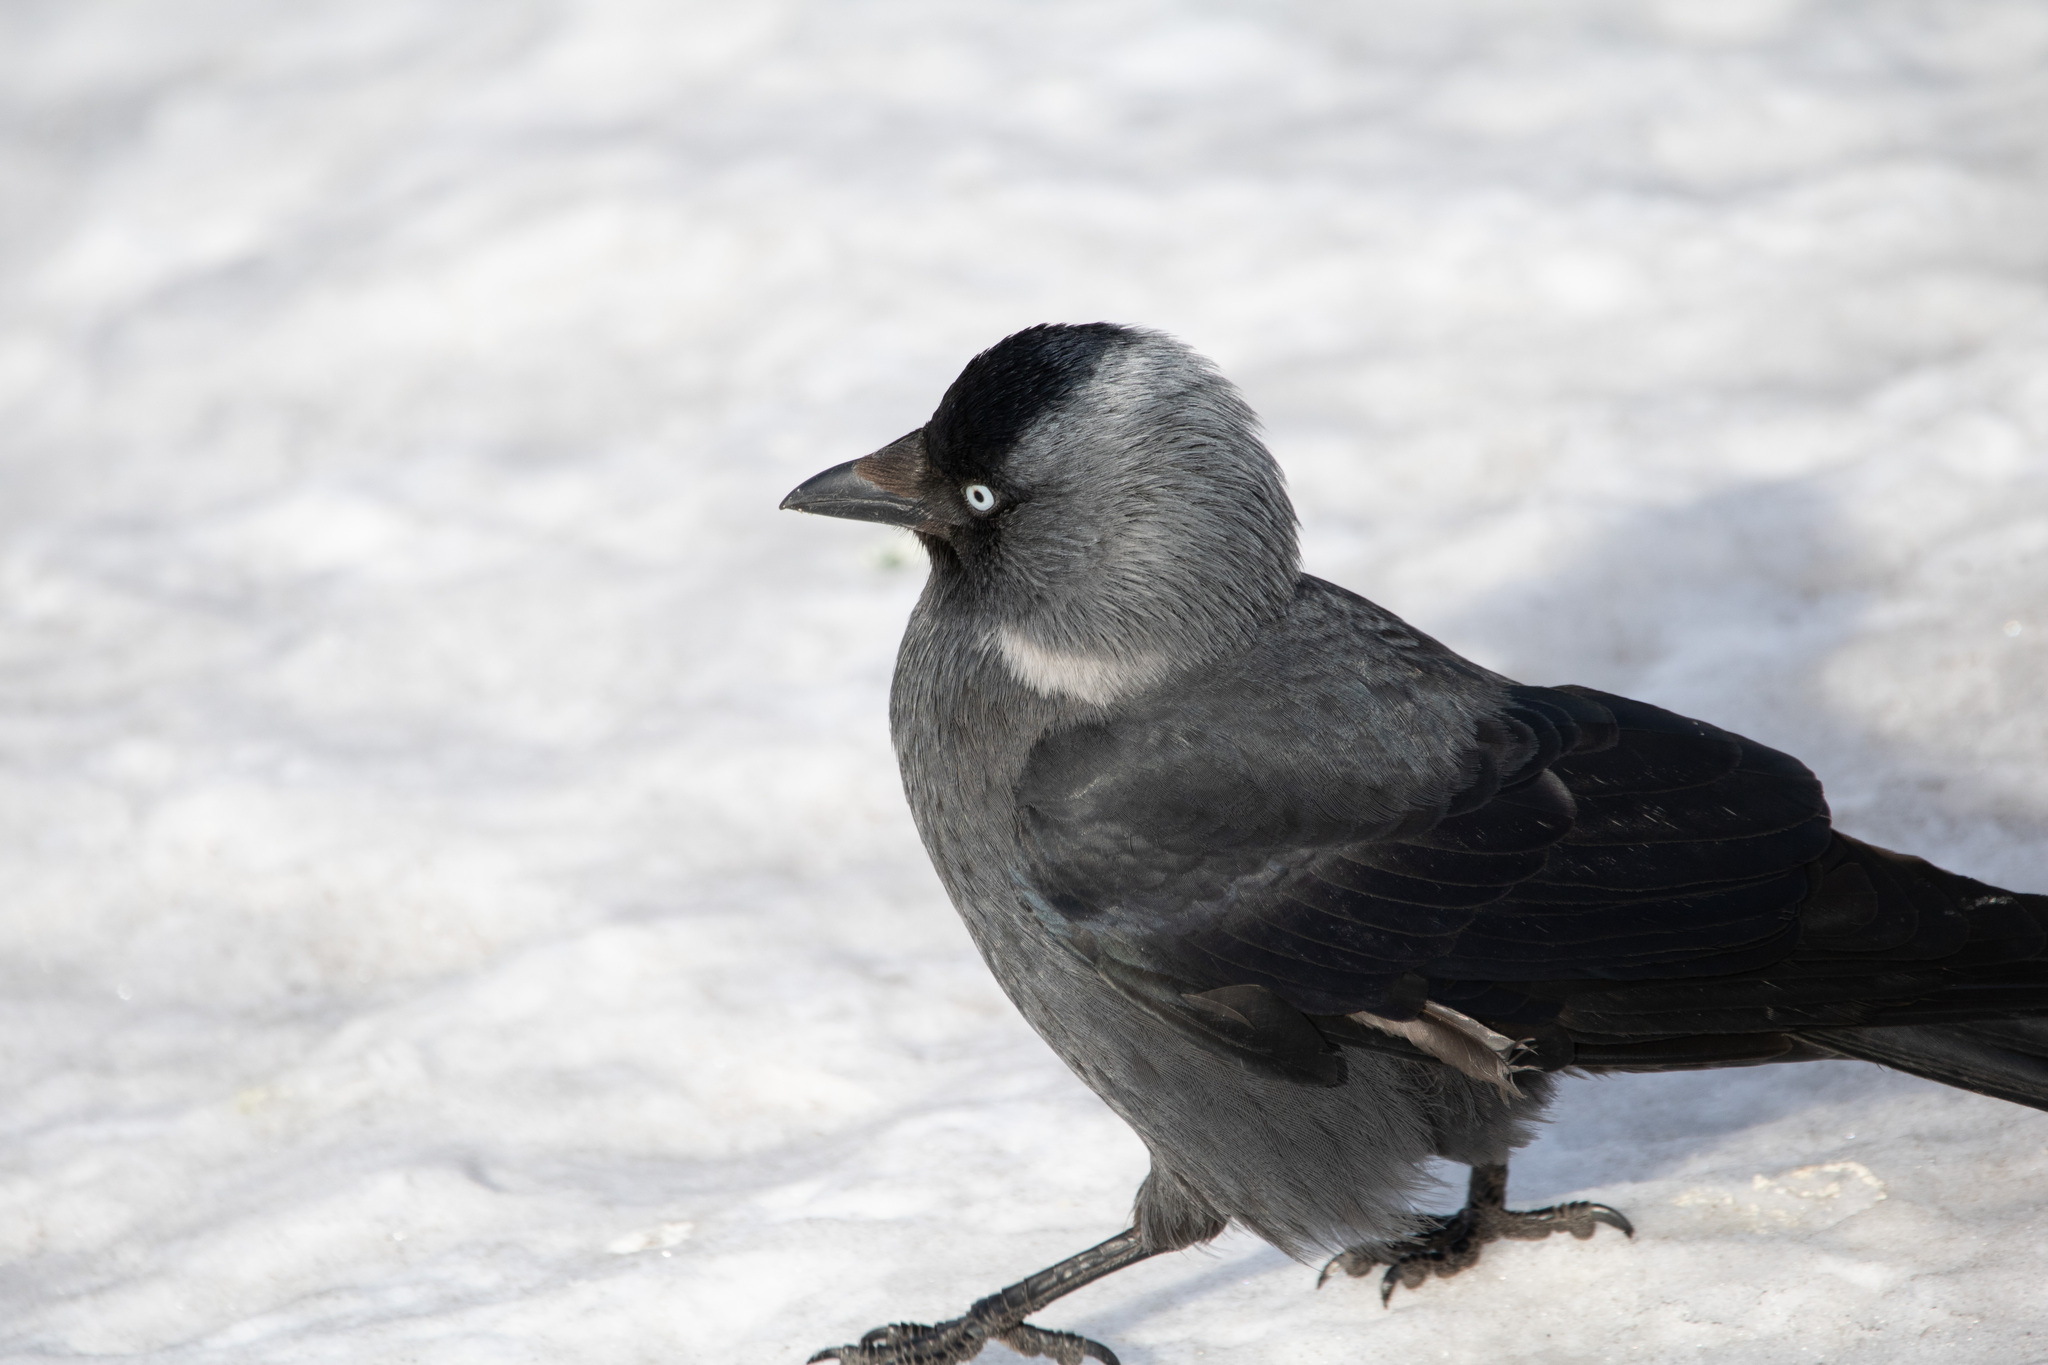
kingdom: Animalia
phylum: Chordata
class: Aves
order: Passeriformes
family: Corvidae
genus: Coloeus
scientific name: Coloeus monedula
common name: Western jackdaw
